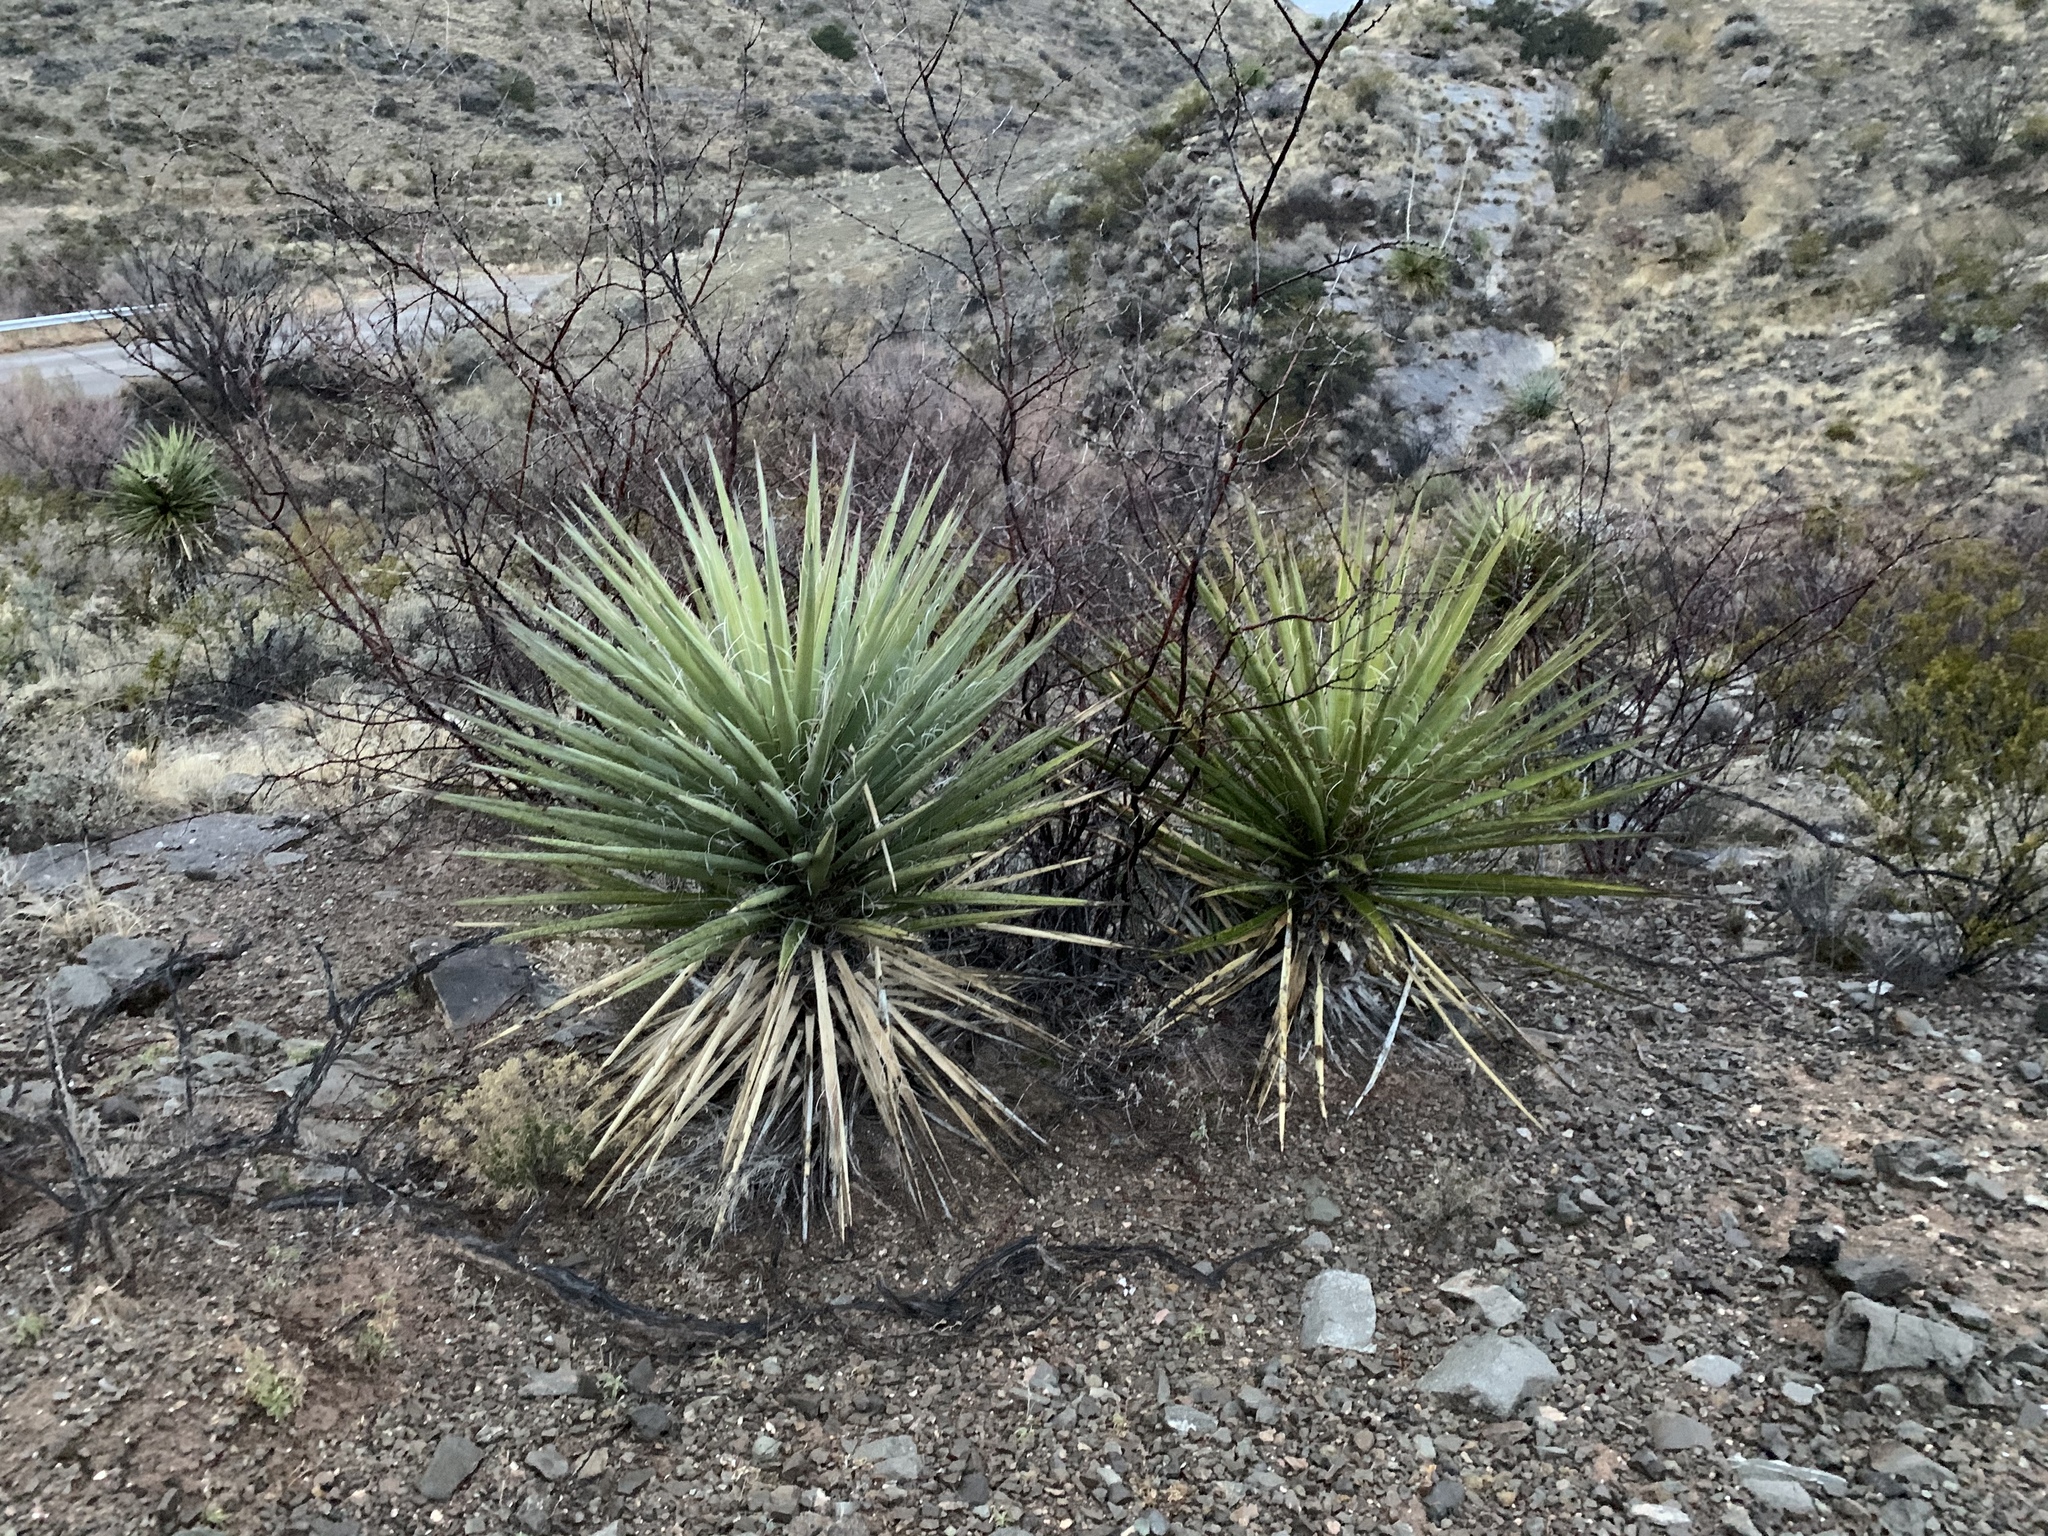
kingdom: Plantae
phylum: Tracheophyta
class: Liliopsida
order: Asparagales
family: Asparagaceae
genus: Yucca
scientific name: Yucca treculiana
